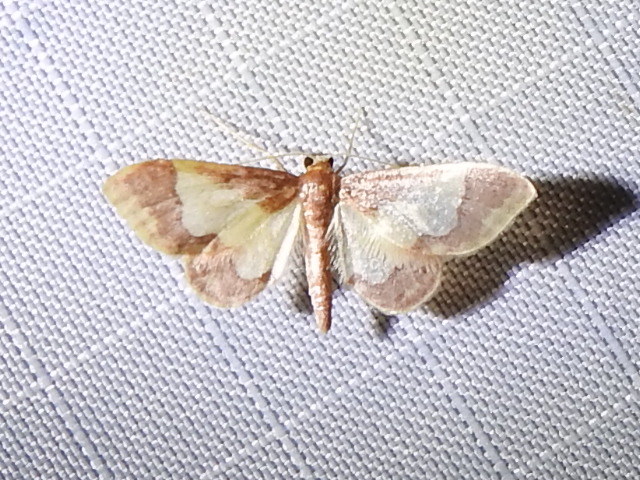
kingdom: Animalia
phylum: Arthropoda
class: Insecta
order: Lepidoptera
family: Geometridae
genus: Idaea
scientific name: Idaea basinta
